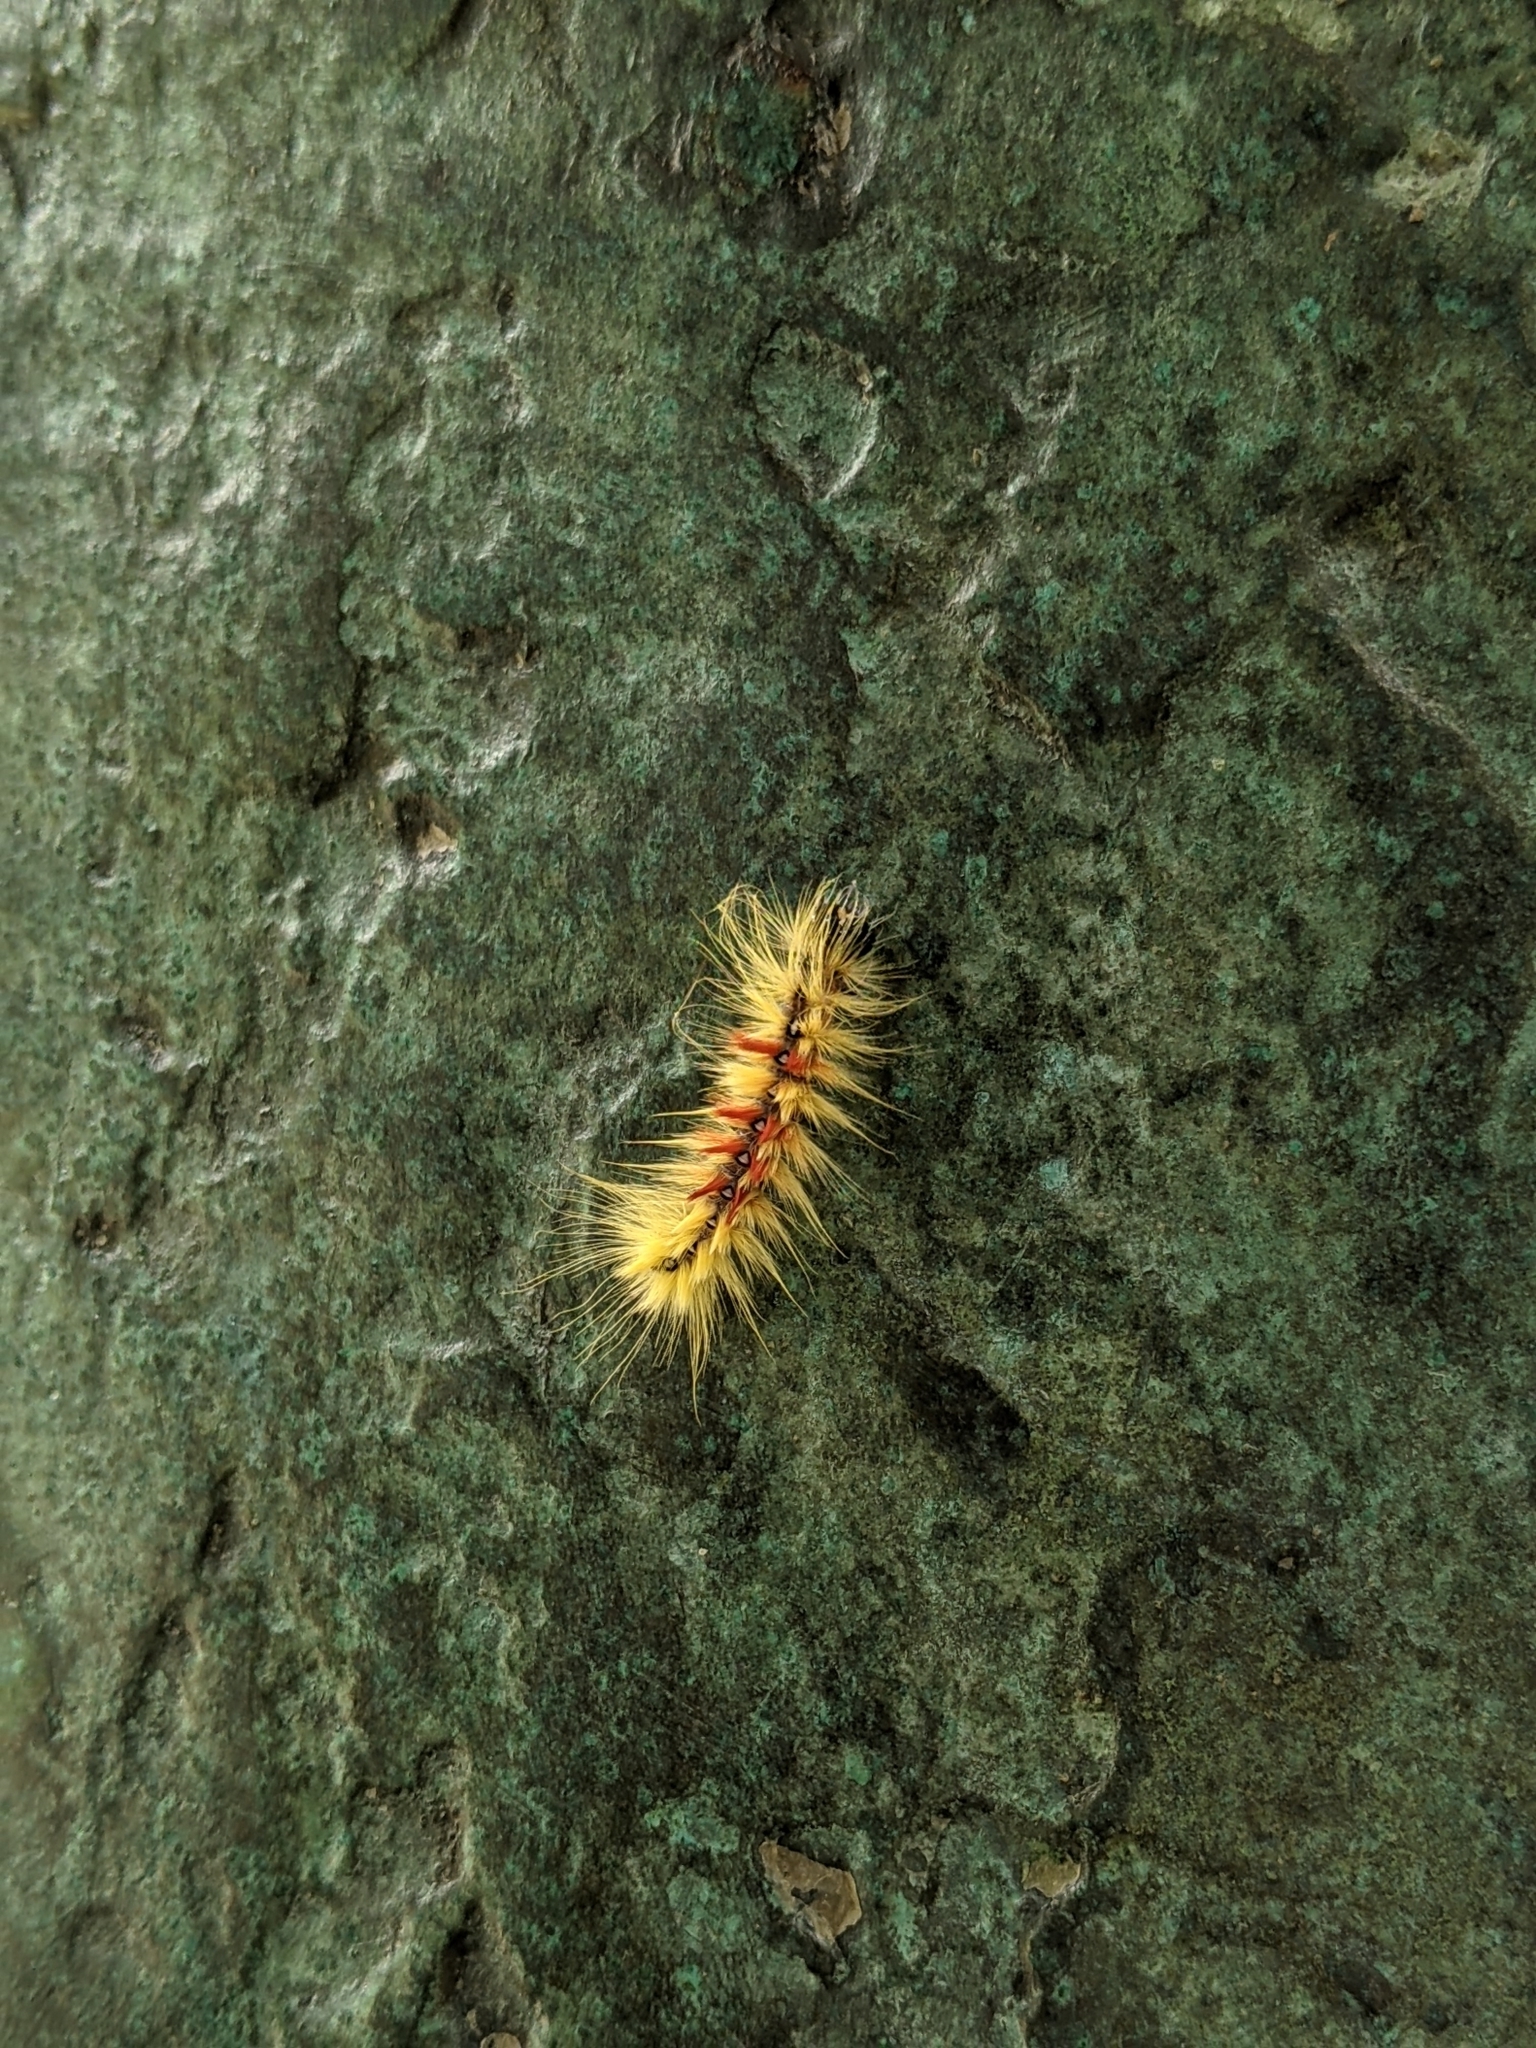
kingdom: Animalia
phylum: Arthropoda
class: Insecta
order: Lepidoptera
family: Noctuidae
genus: Acronicta
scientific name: Acronicta aceris
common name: Sycamore
